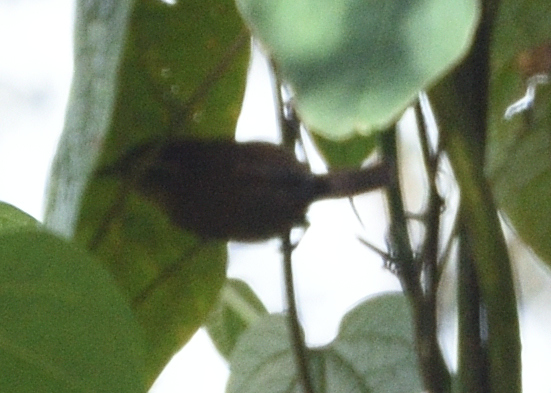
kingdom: Animalia
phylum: Chordata
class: Aves
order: Passeriformes
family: Troglodytidae
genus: Troglodytes
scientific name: Troglodytes solstitialis
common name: Mountain wren
